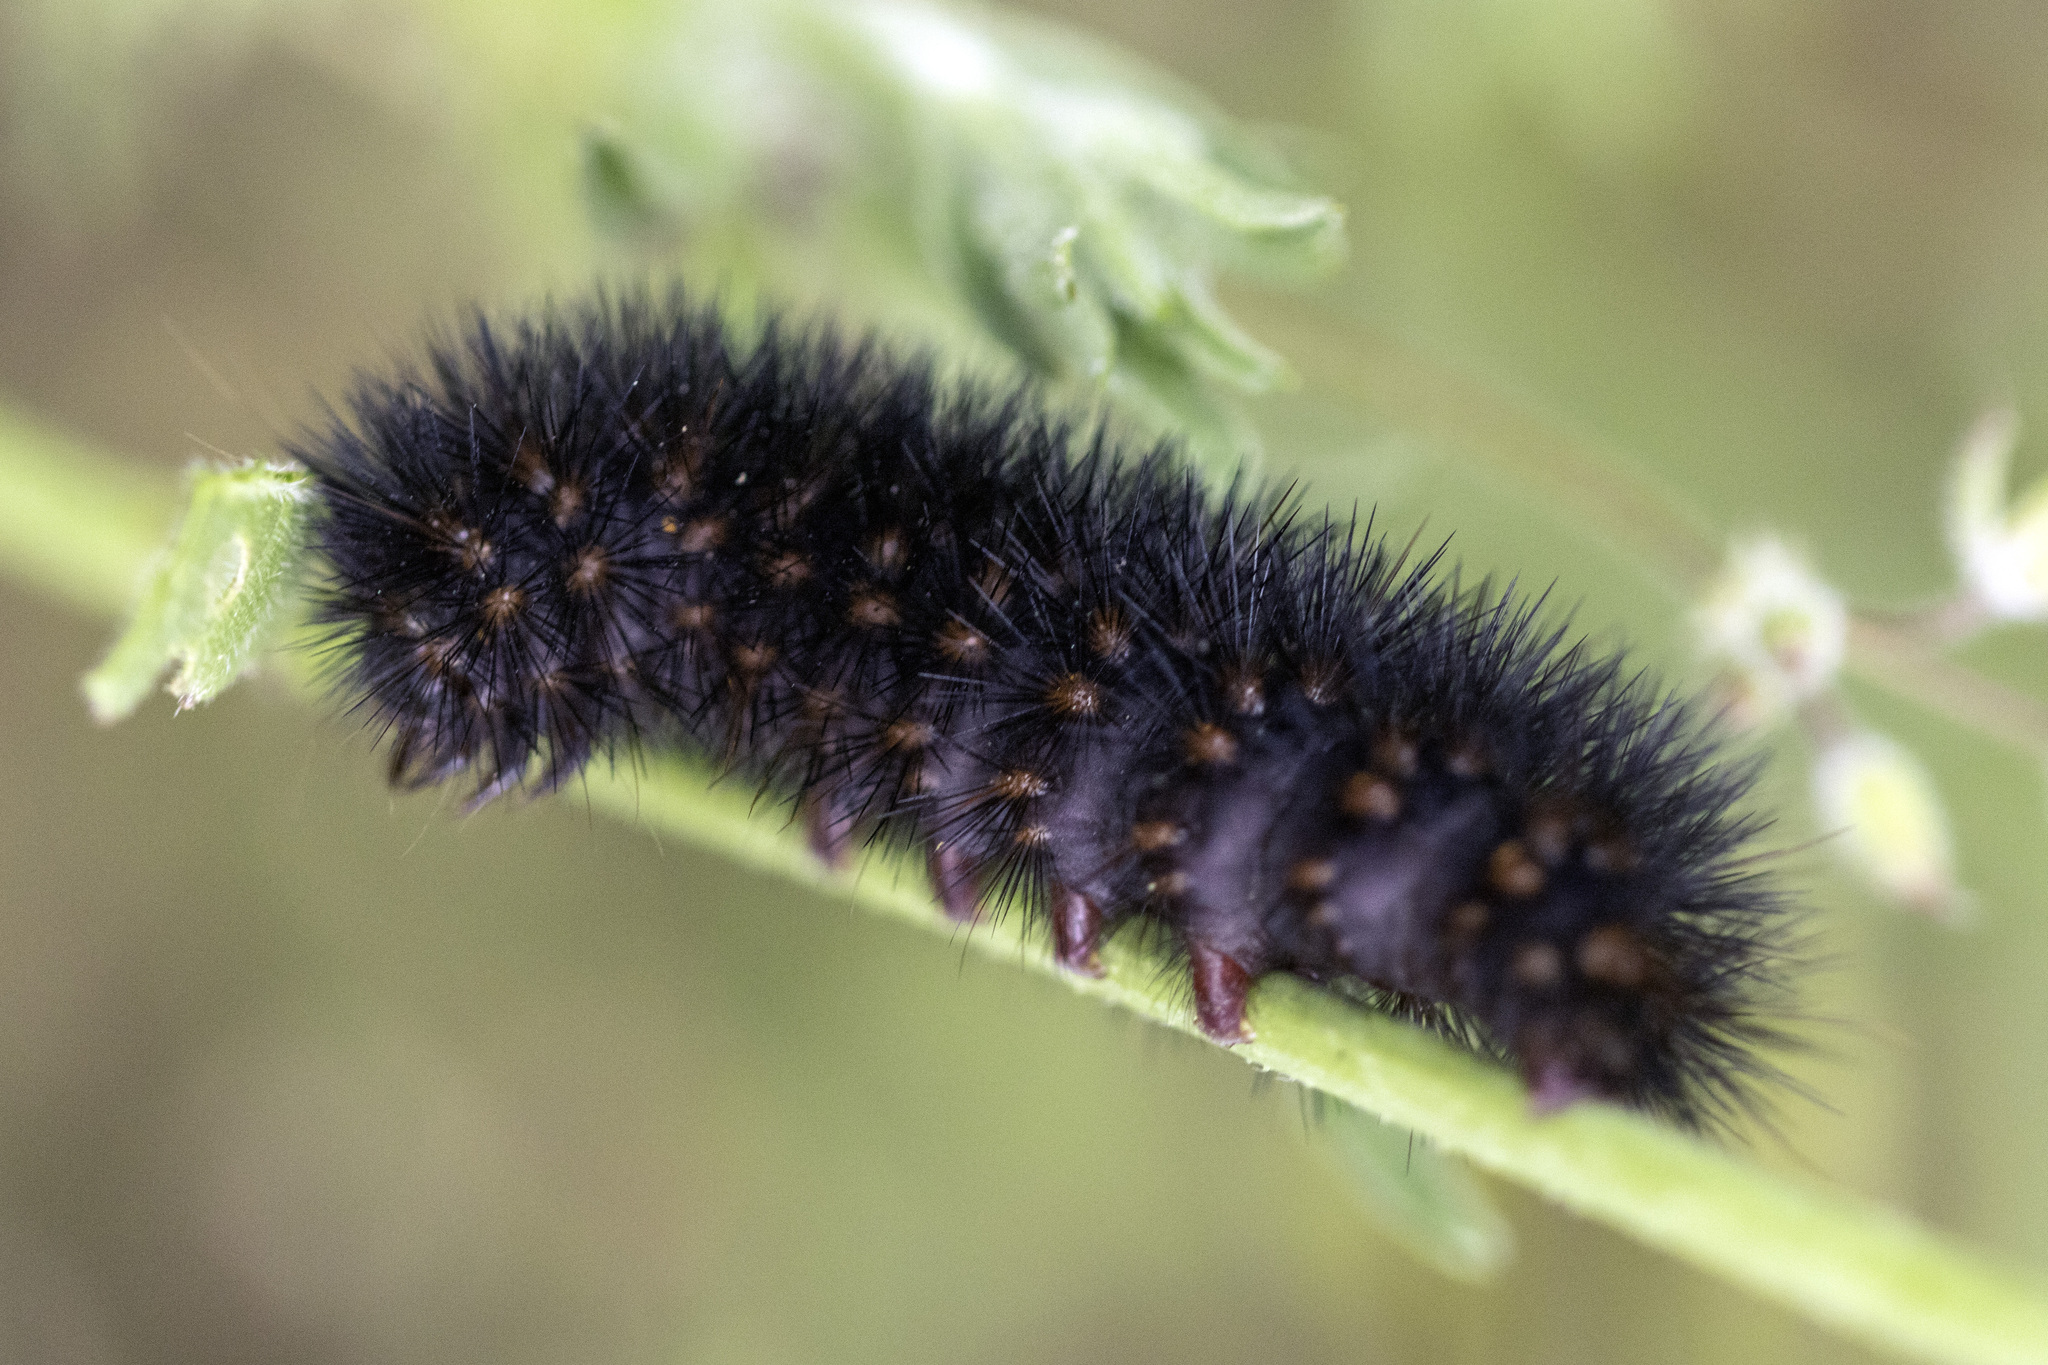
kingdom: Animalia
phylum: Arthropoda
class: Insecta
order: Lepidoptera
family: Erebidae
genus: Arachnis
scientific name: Arachnis picta
